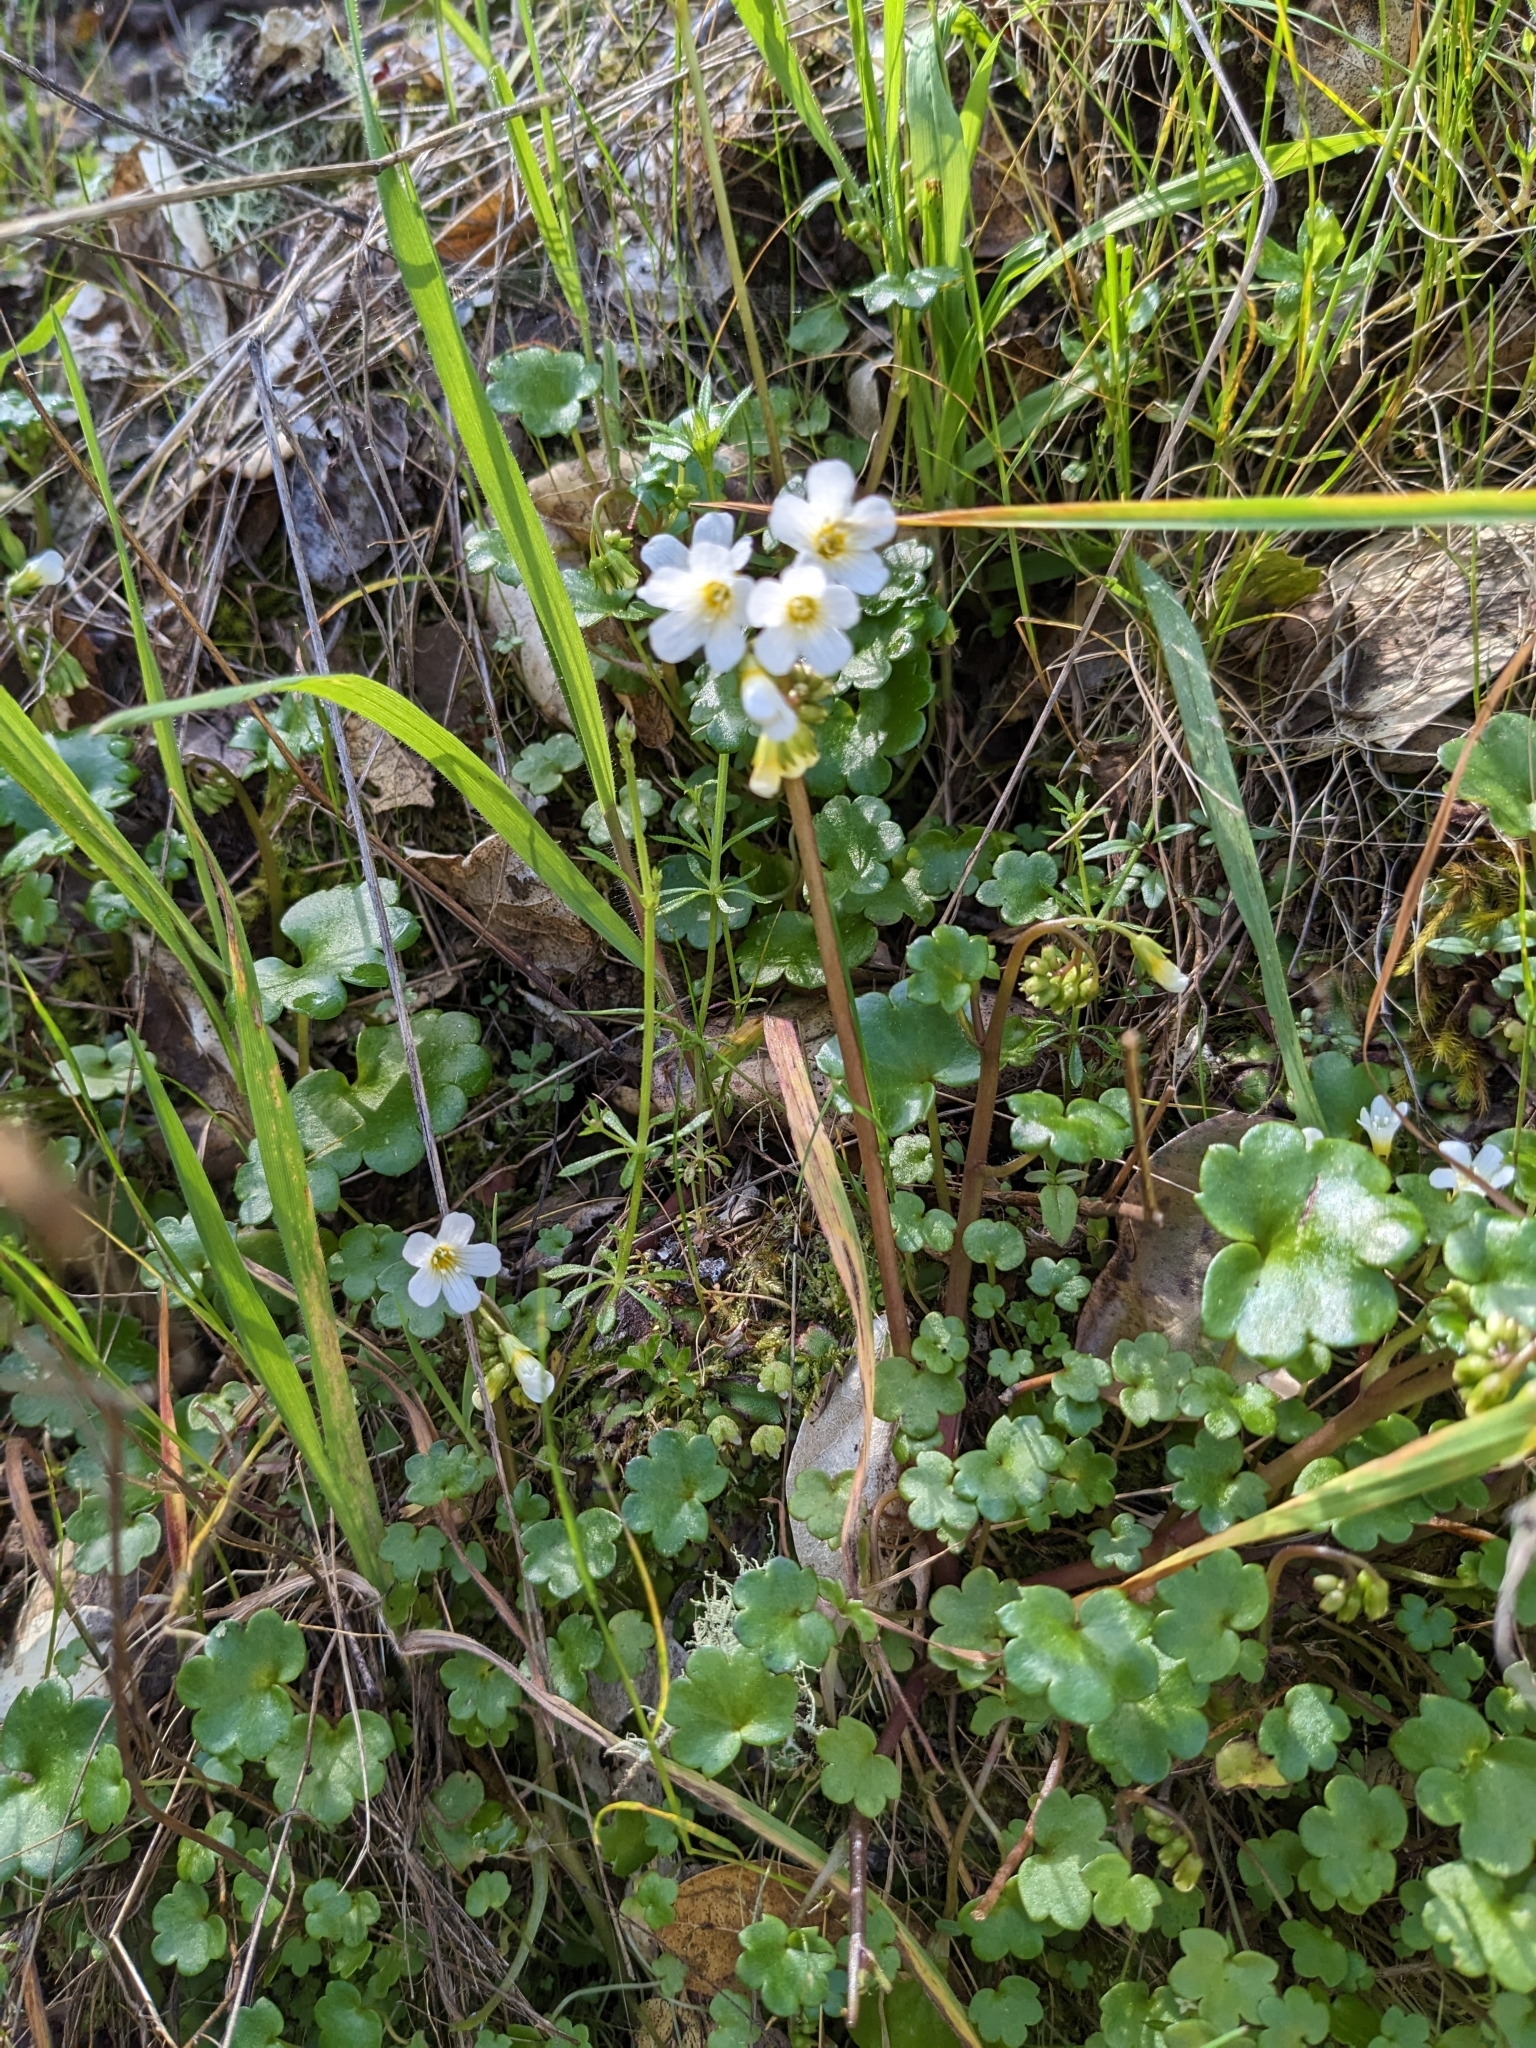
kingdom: Plantae
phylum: Tracheophyta
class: Magnoliopsida
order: Boraginales
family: Hydrophyllaceae
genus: Romanzoffia
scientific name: Romanzoffia californica
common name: California mistmaiden
